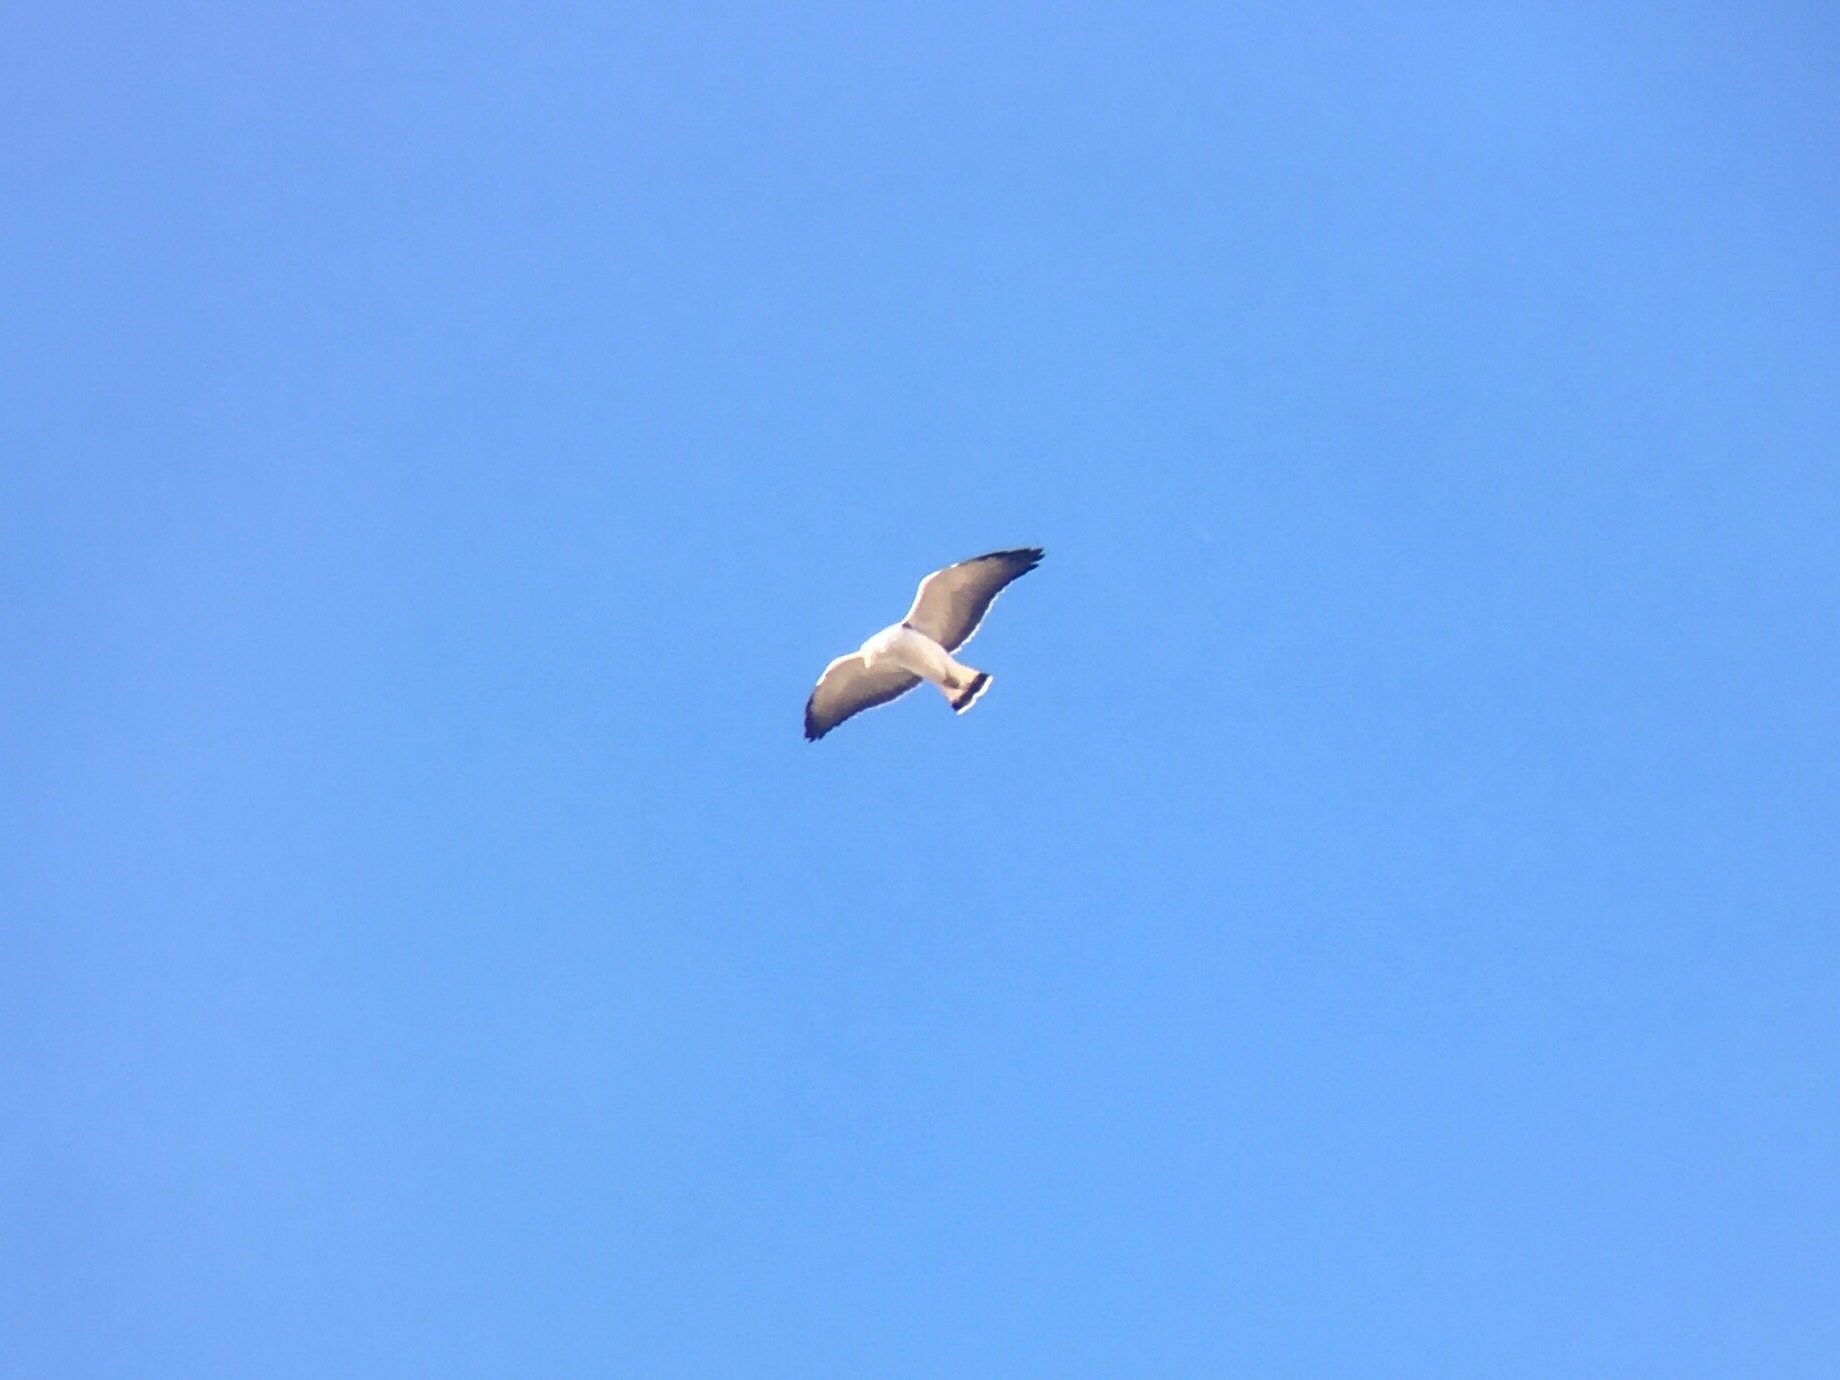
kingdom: Animalia
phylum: Chordata
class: Aves
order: Accipitriformes
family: Accipitridae
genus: Buteo
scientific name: Buteo polyosoma
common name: Variable hawk
